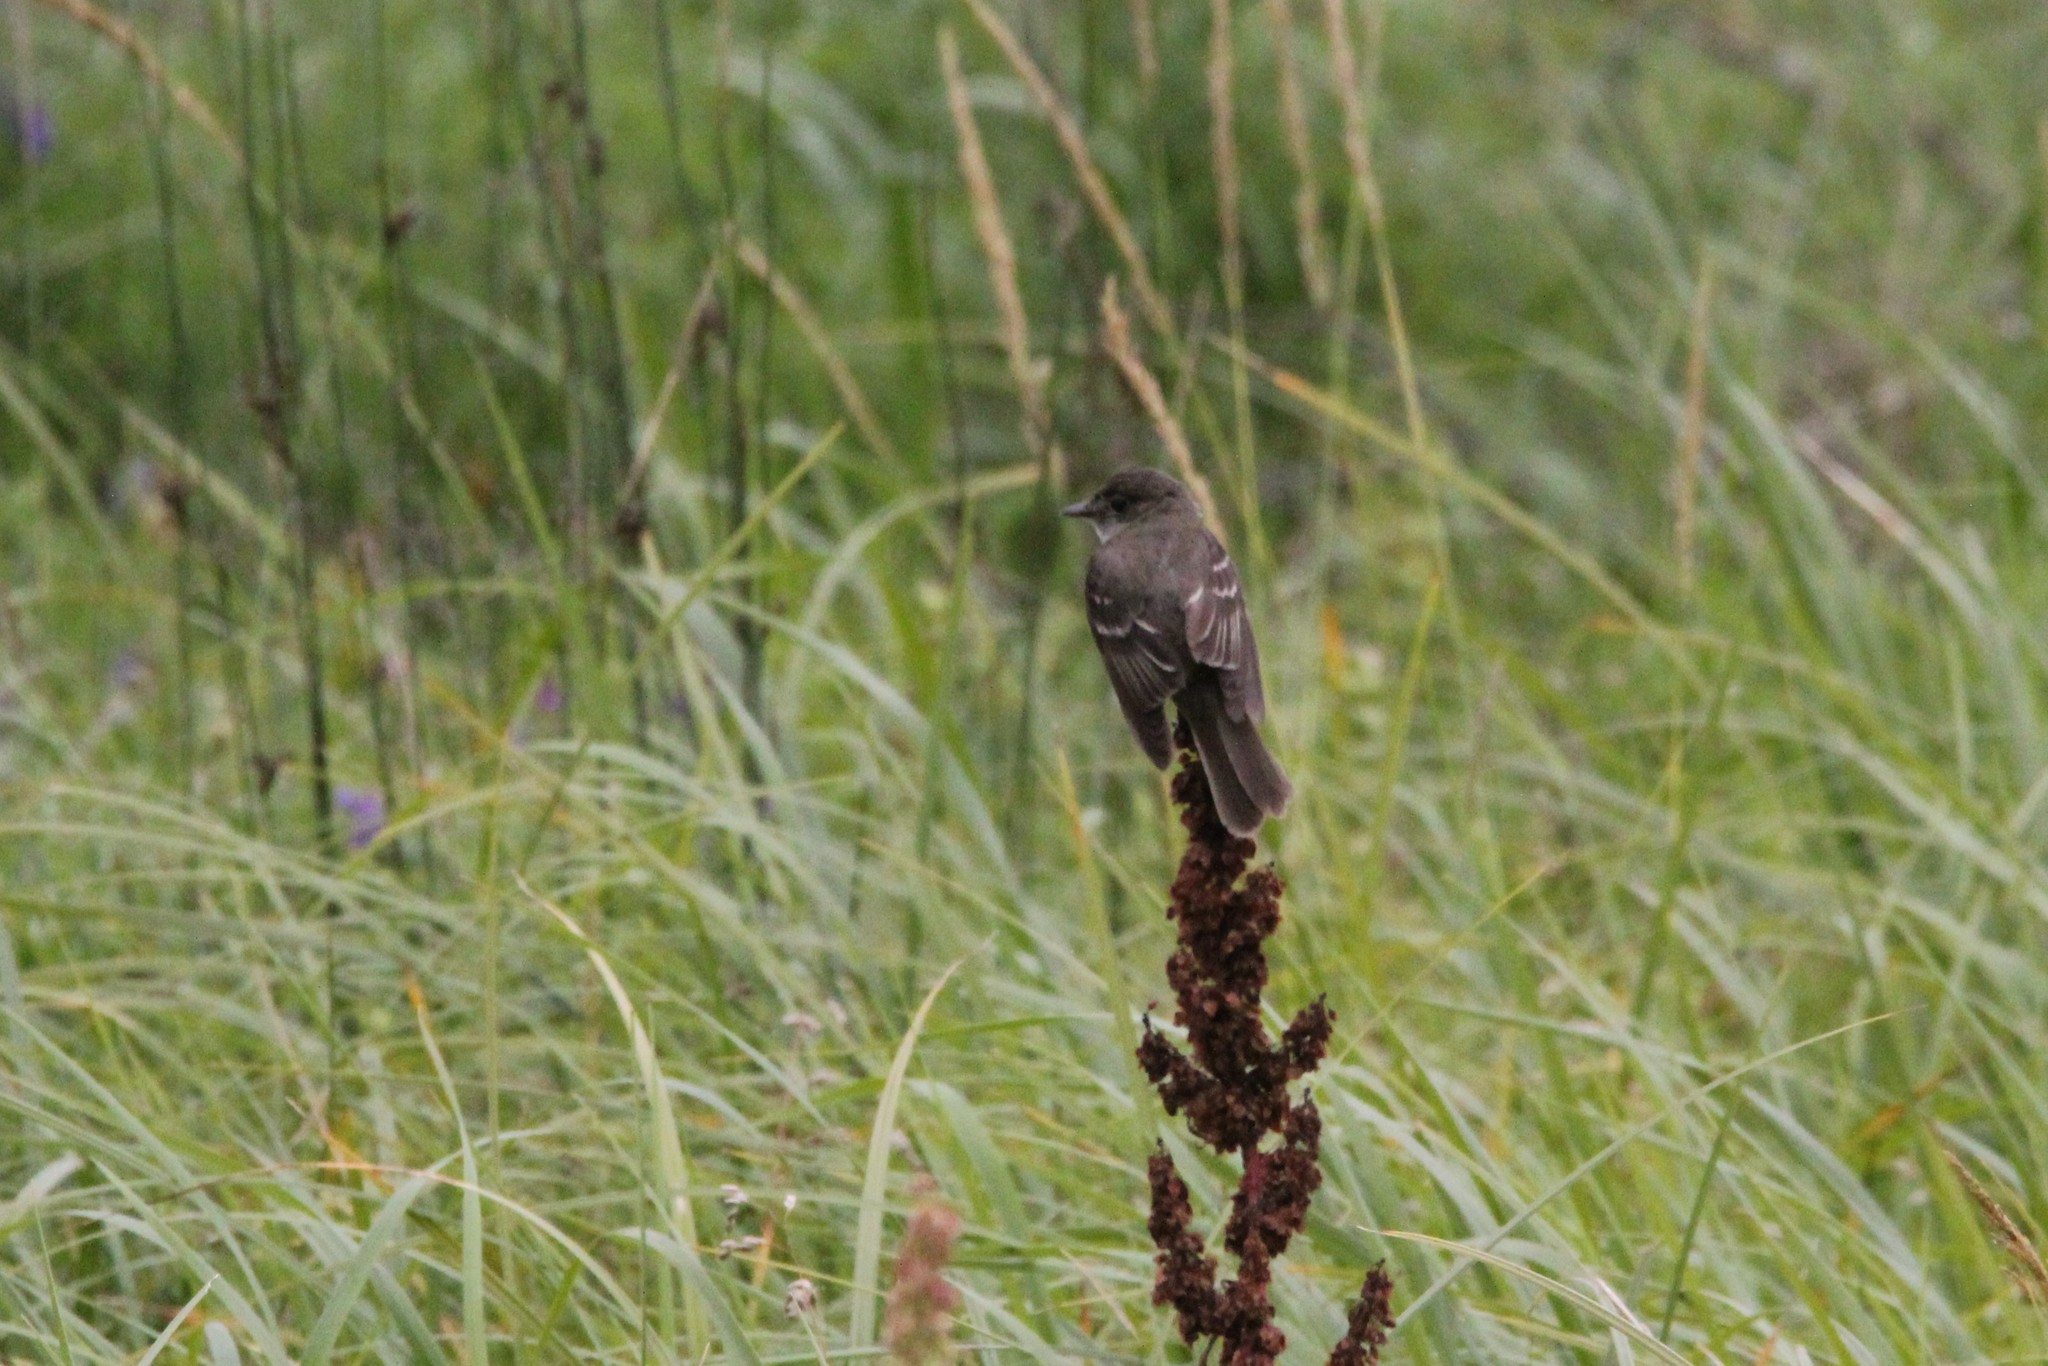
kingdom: Animalia
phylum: Chordata
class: Aves
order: Passeriformes
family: Tyrannidae
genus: Empidonax
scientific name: Empidonax alnorum
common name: Alder flycatcher
